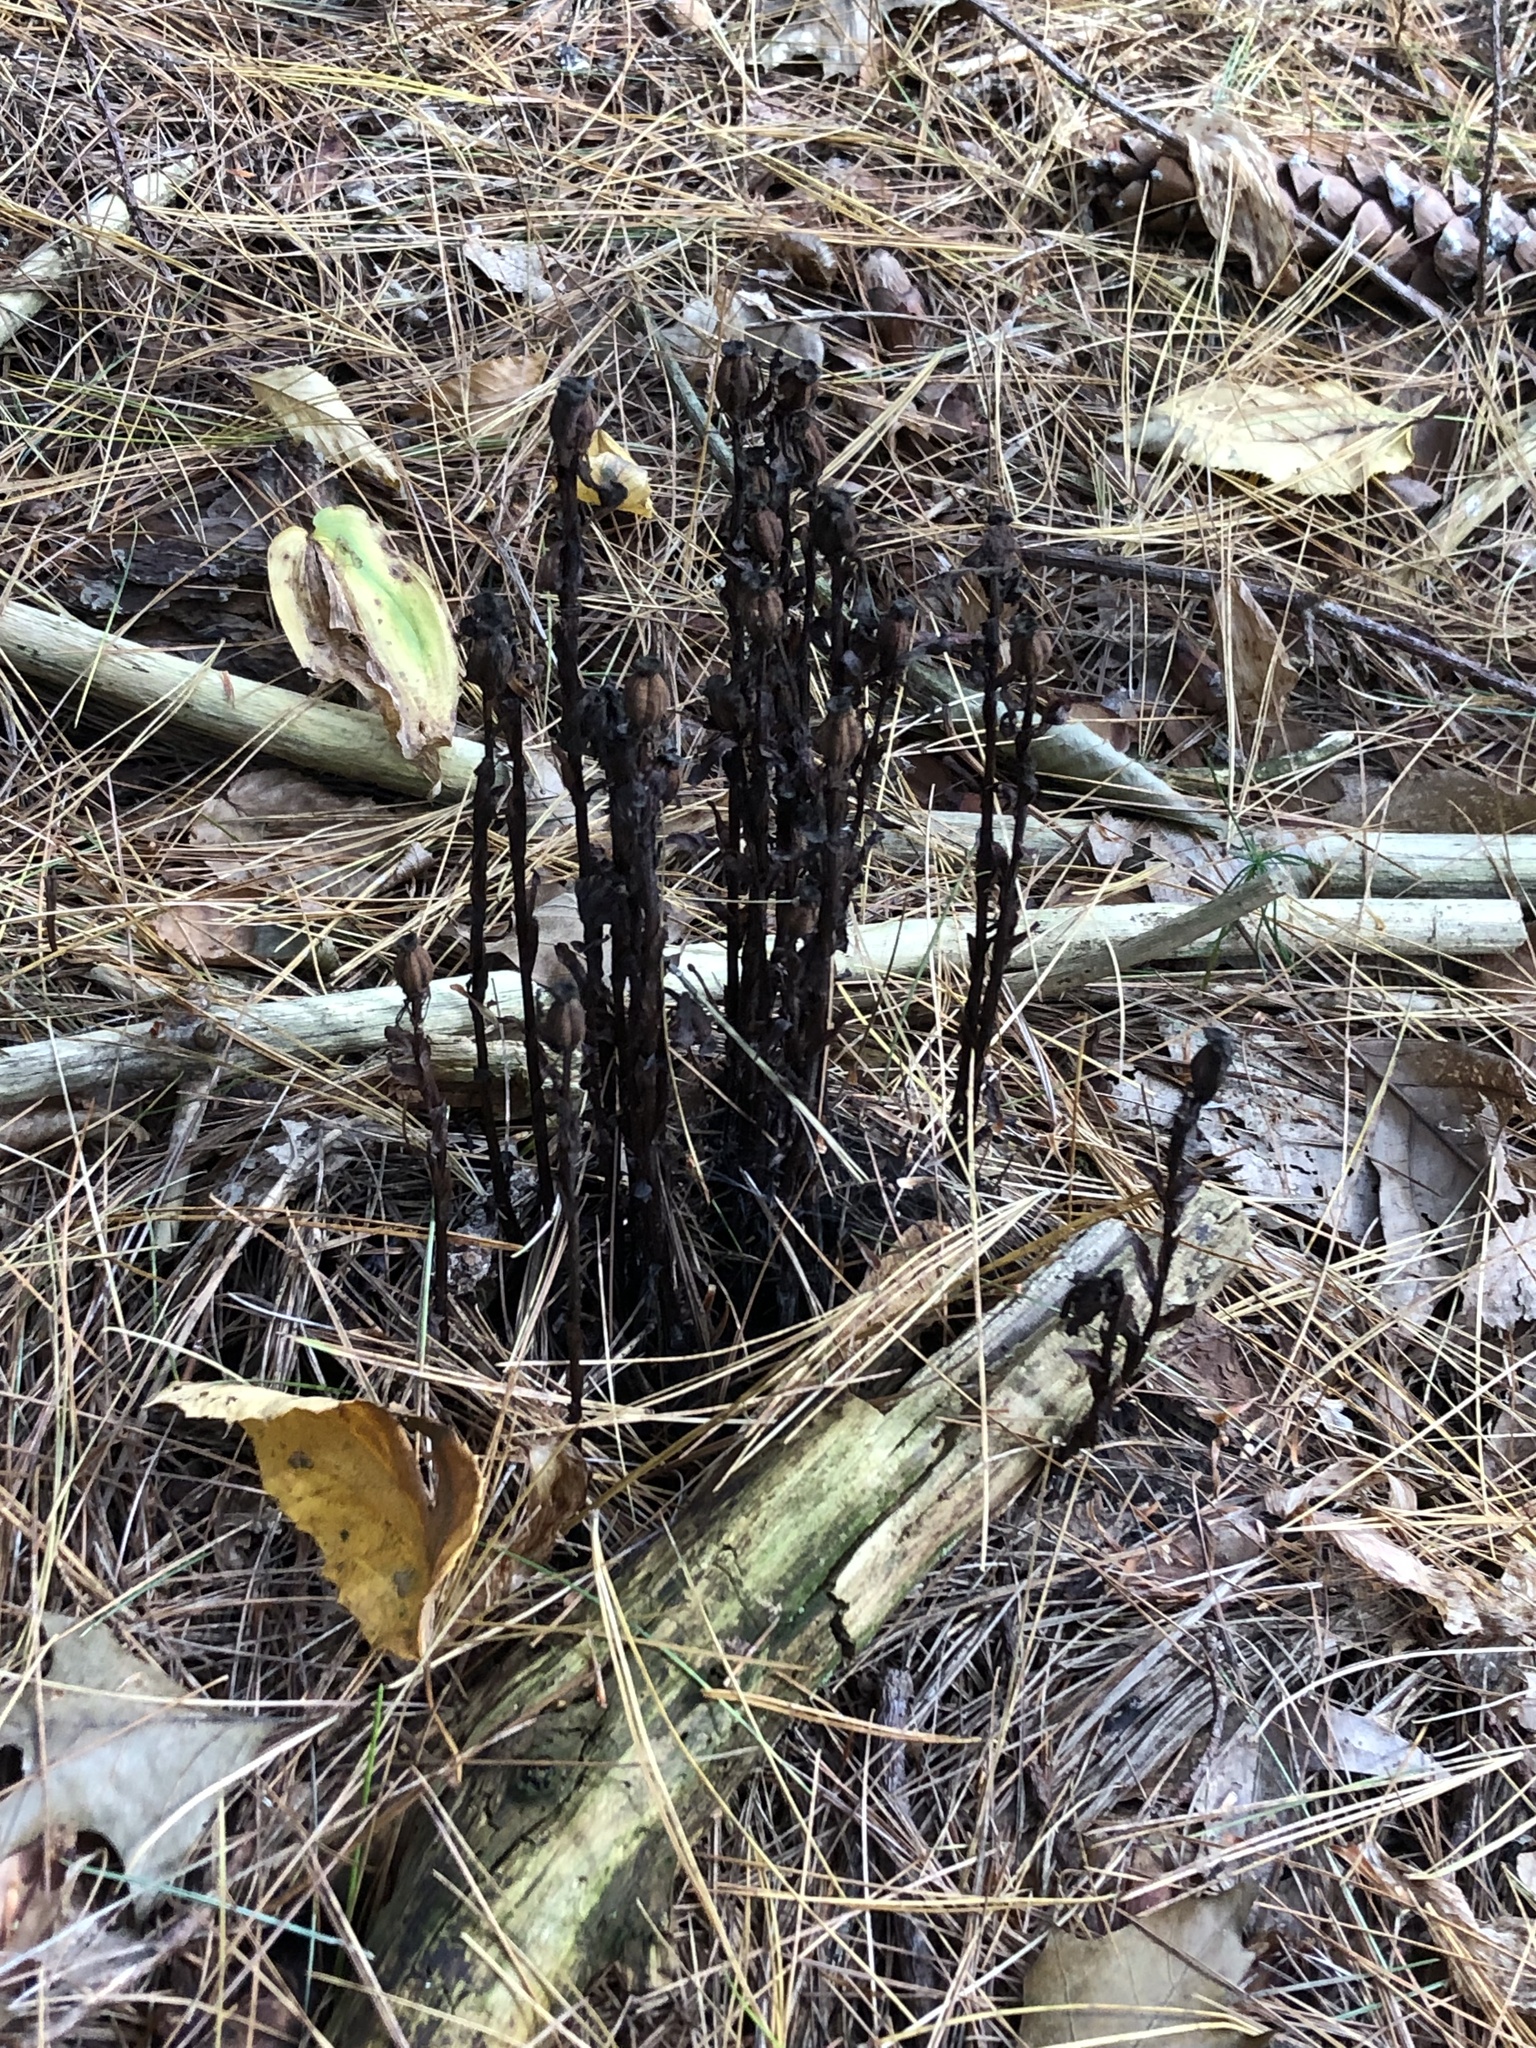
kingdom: Plantae
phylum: Tracheophyta
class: Magnoliopsida
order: Ericales
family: Ericaceae
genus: Monotropa
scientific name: Monotropa uniflora
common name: Convulsion root
